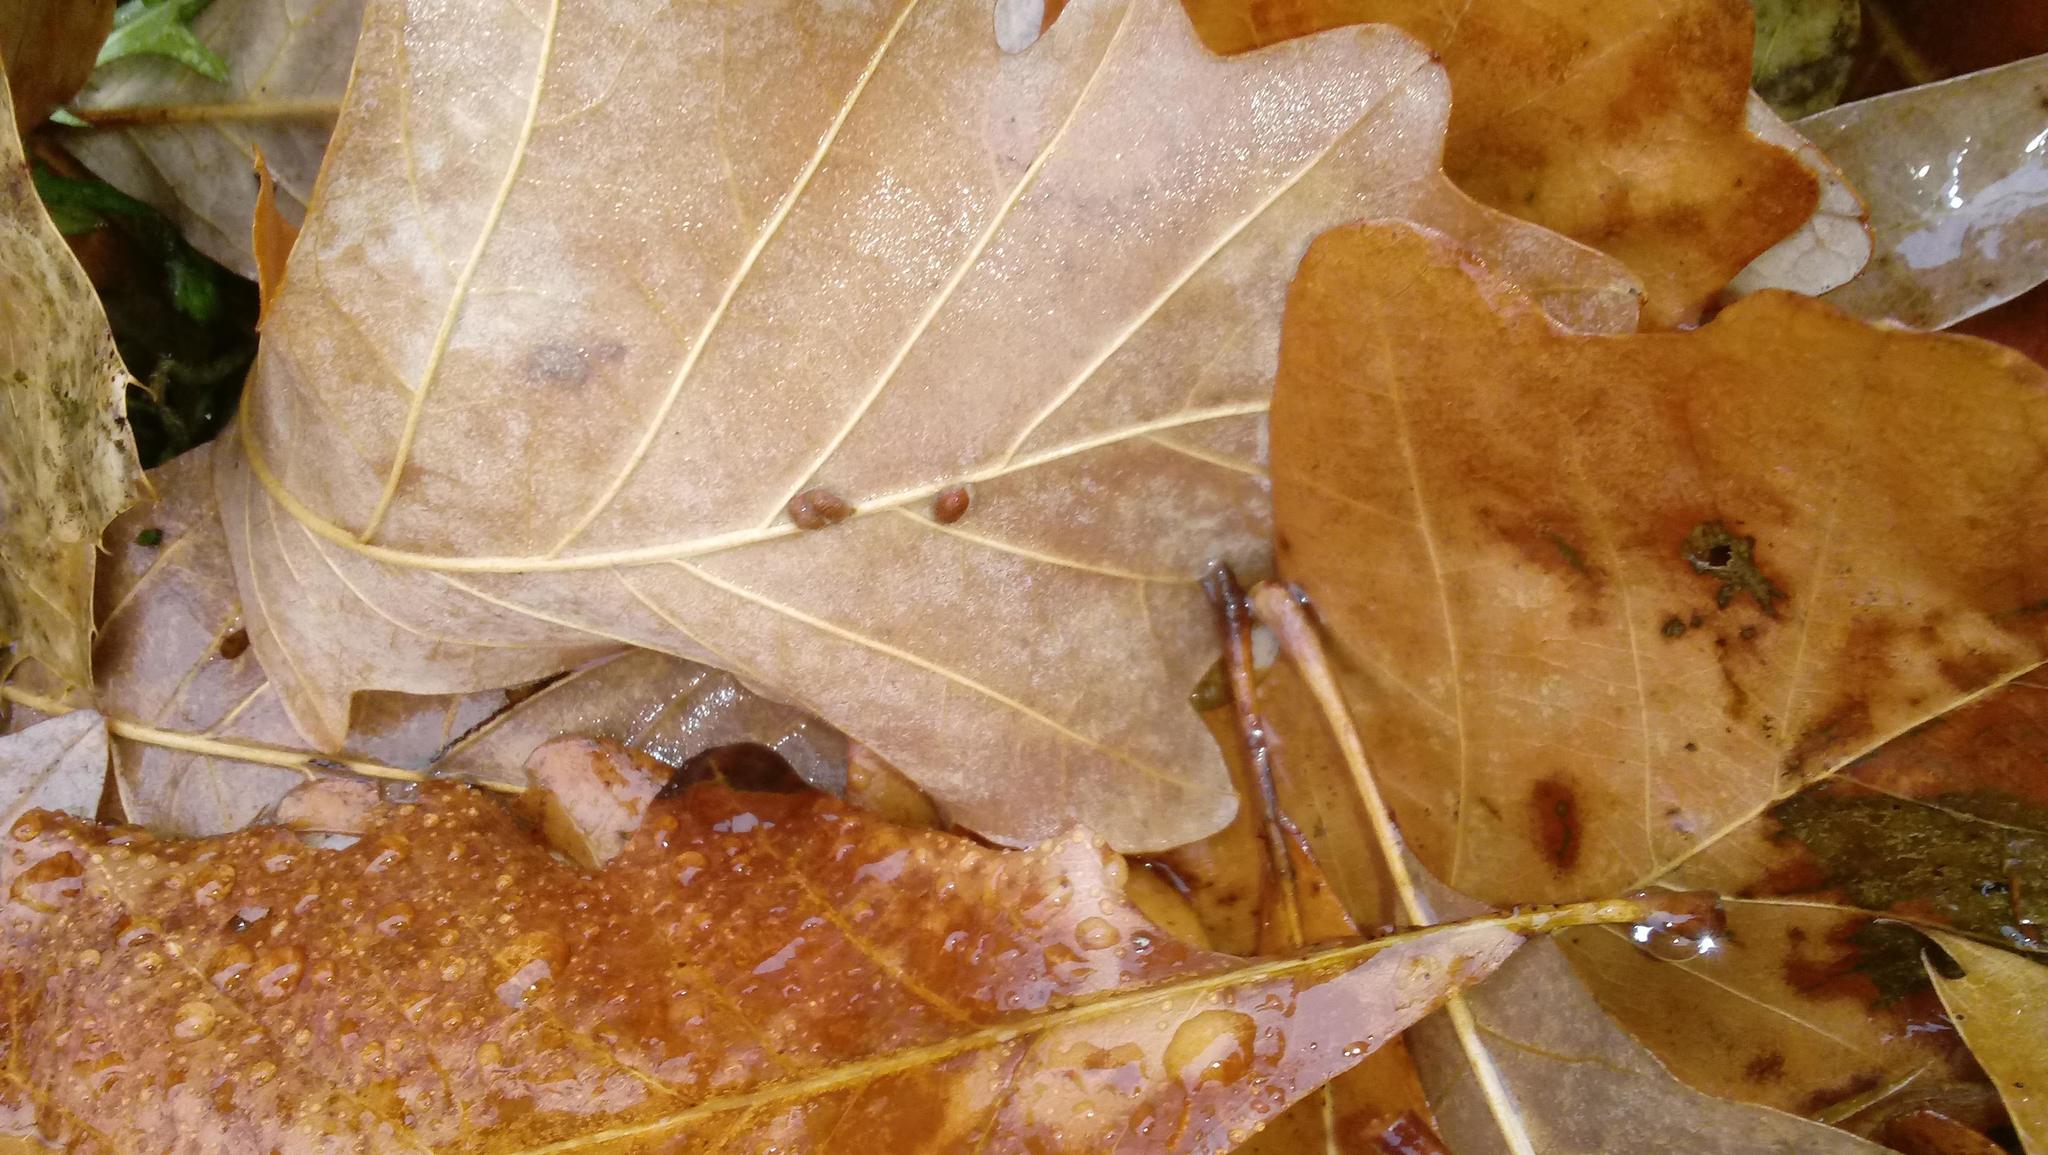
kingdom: Animalia
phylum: Arthropoda
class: Insecta
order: Hymenoptera
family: Cynipidae
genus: Andricus
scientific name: Andricus Druon ignotum
